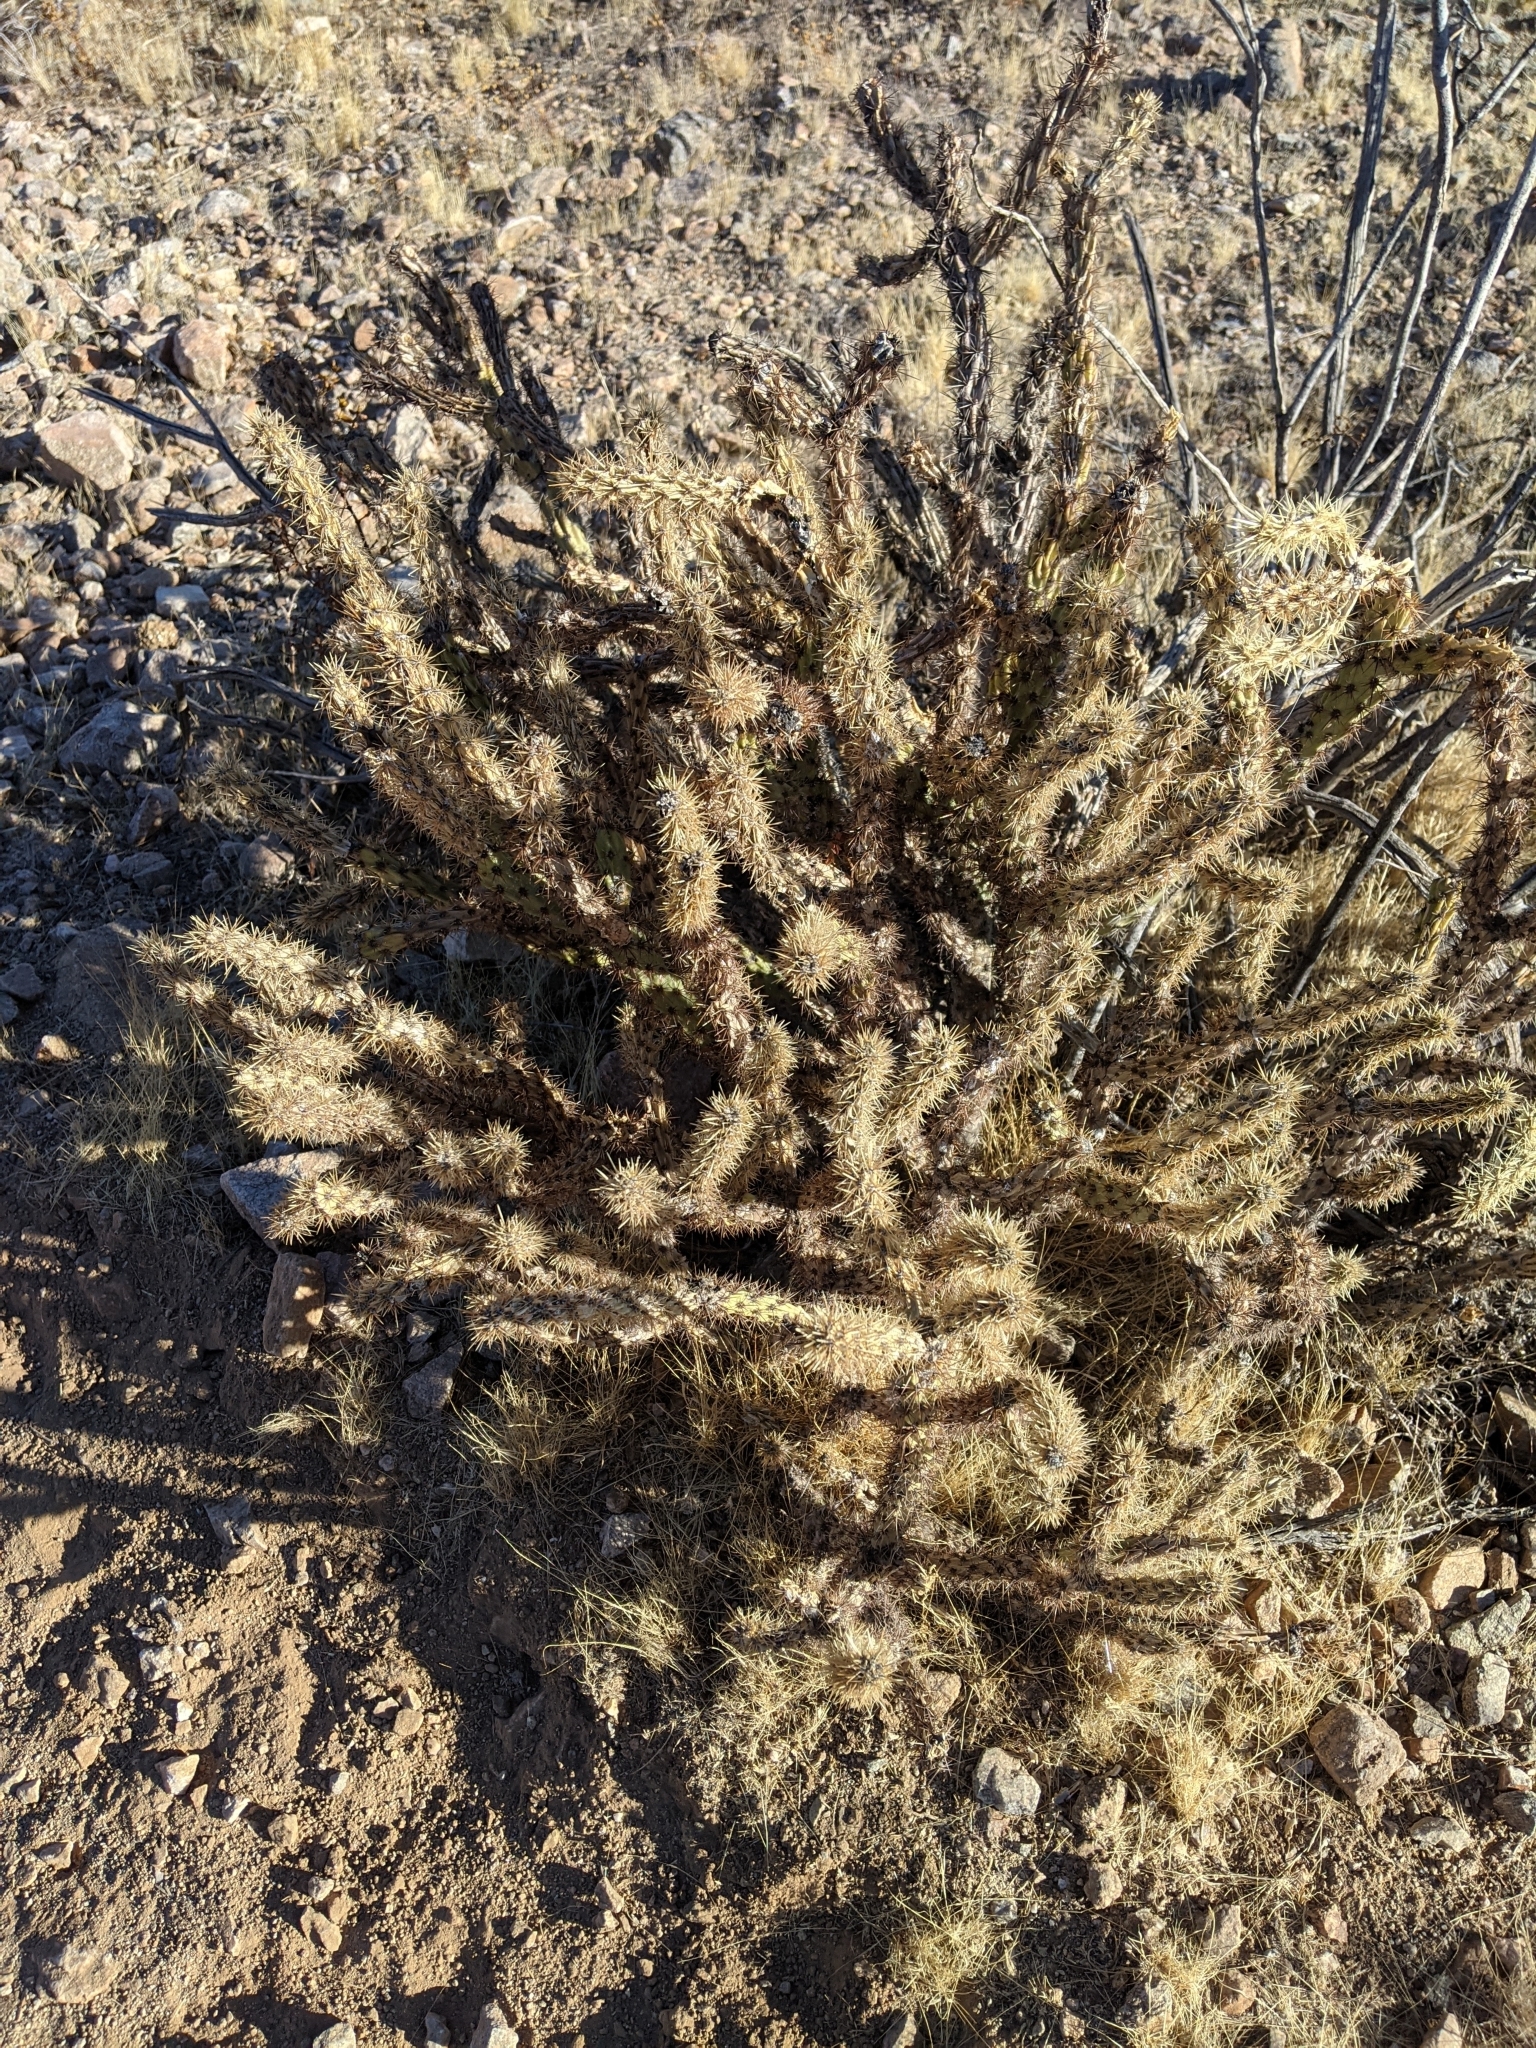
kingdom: Plantae
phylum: Tracheophyta
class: Magnoliopsida
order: Caryophyllales
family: Cactaceae
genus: Cylindropuntia
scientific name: Cylindropuntia acanthocarpa
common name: Buckhorn cholla
